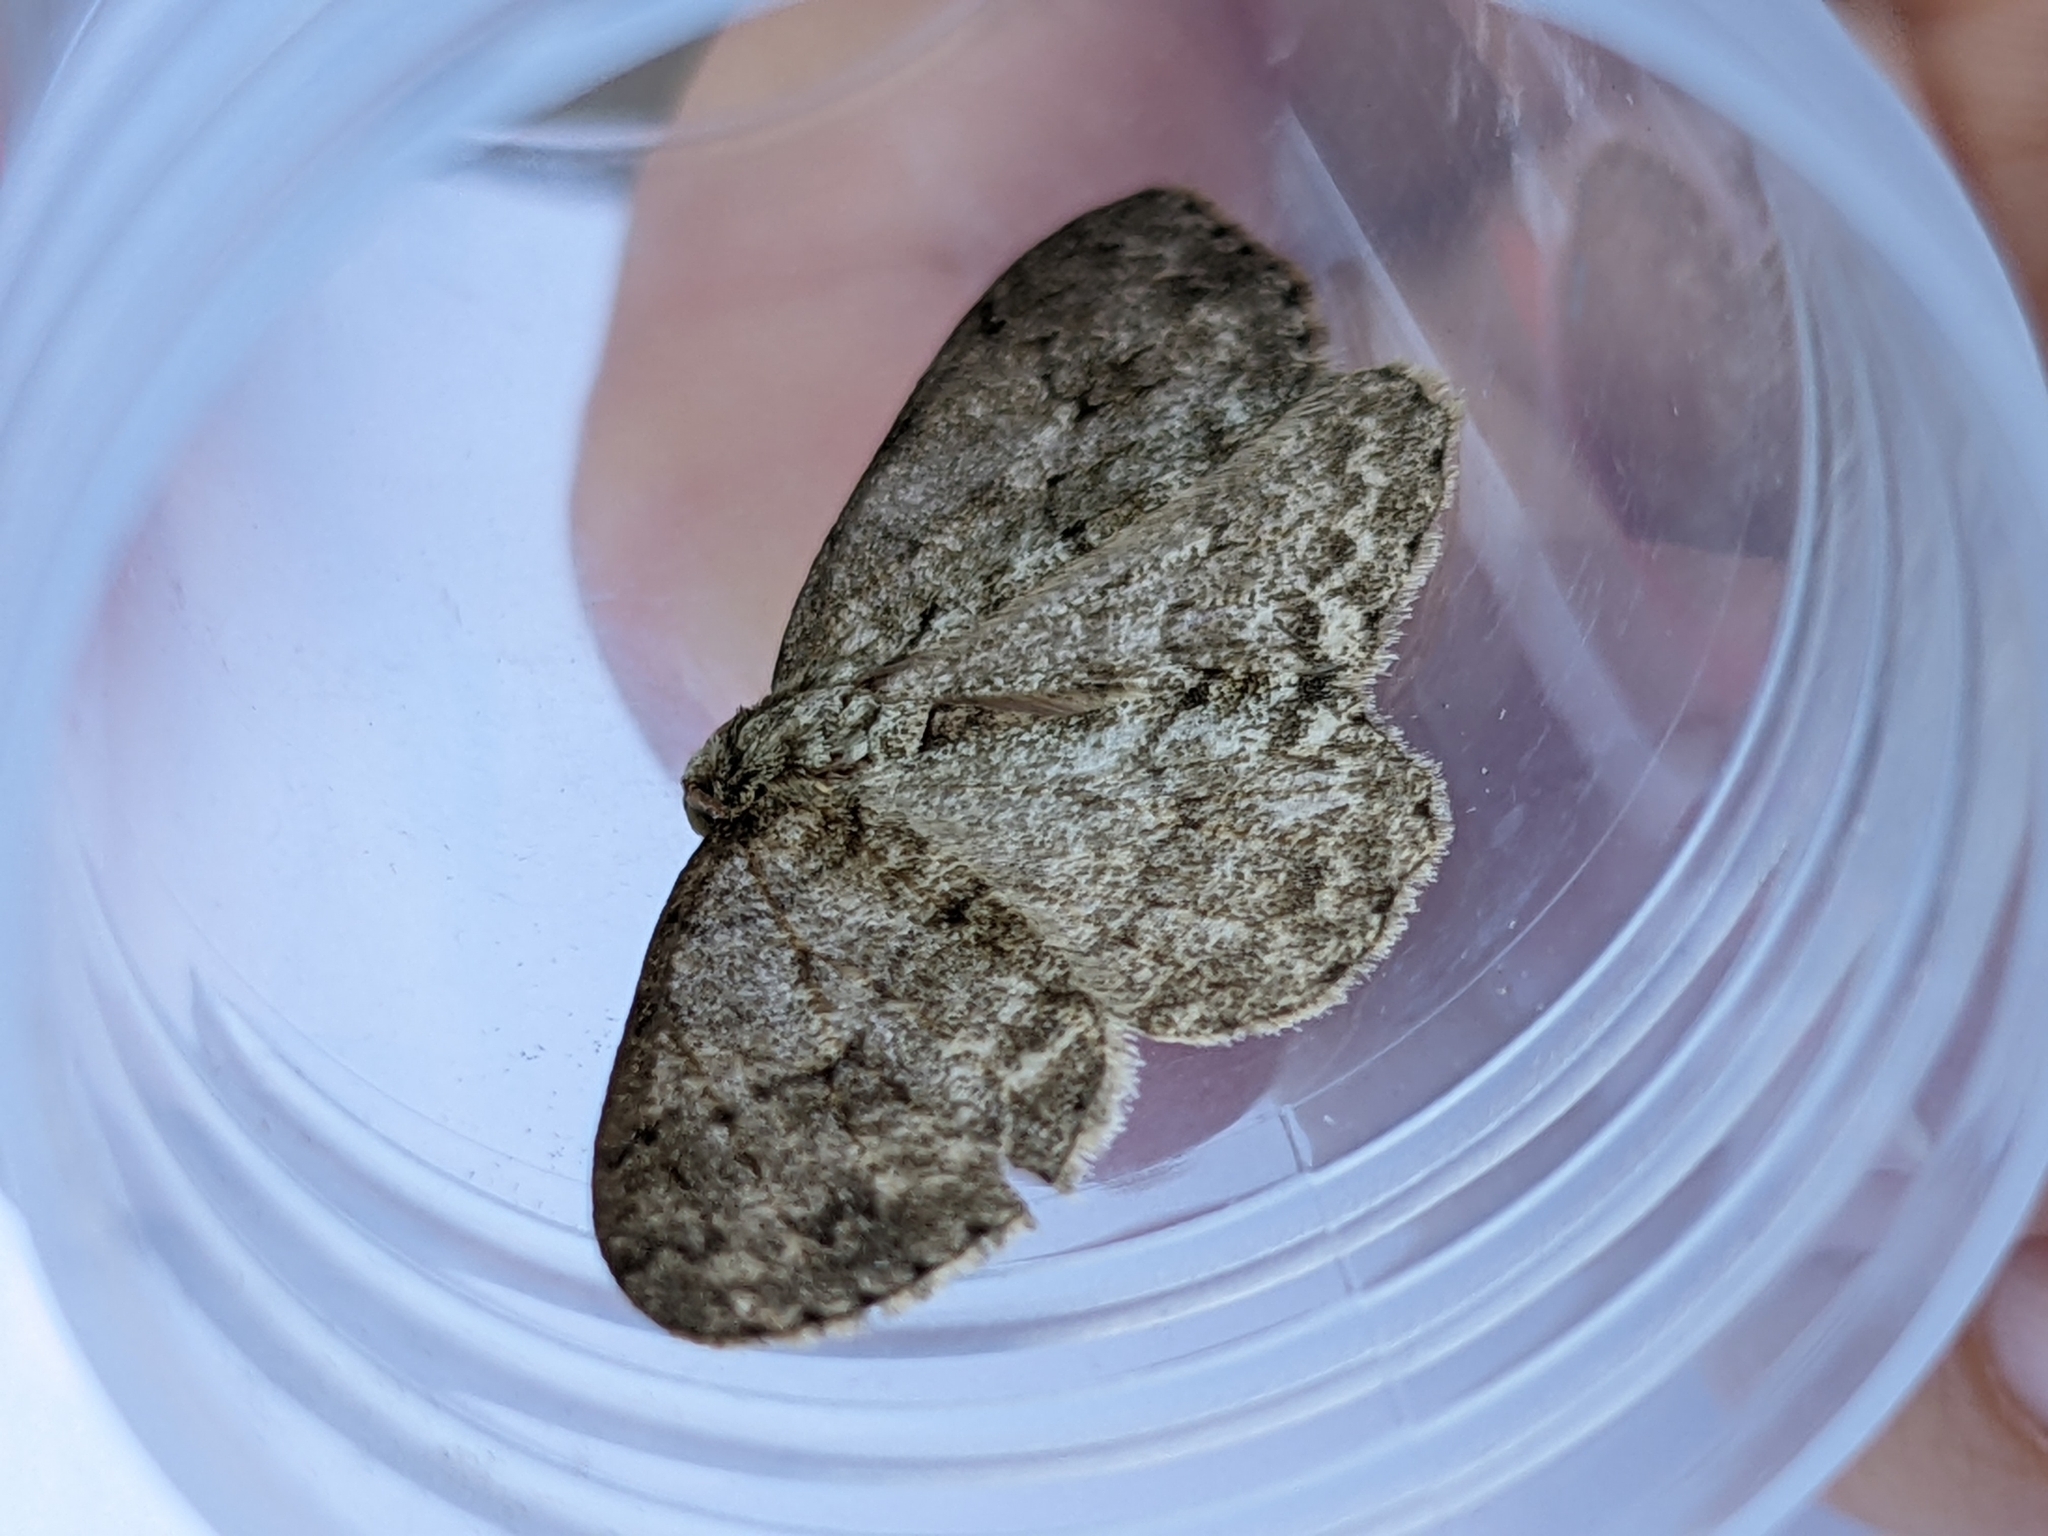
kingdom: Animalia
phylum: Arthropoda
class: Insecta
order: Lepidoptera
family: Geometridae
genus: Ectropis
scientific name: Ectropis crepuscularia
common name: Engrailed
